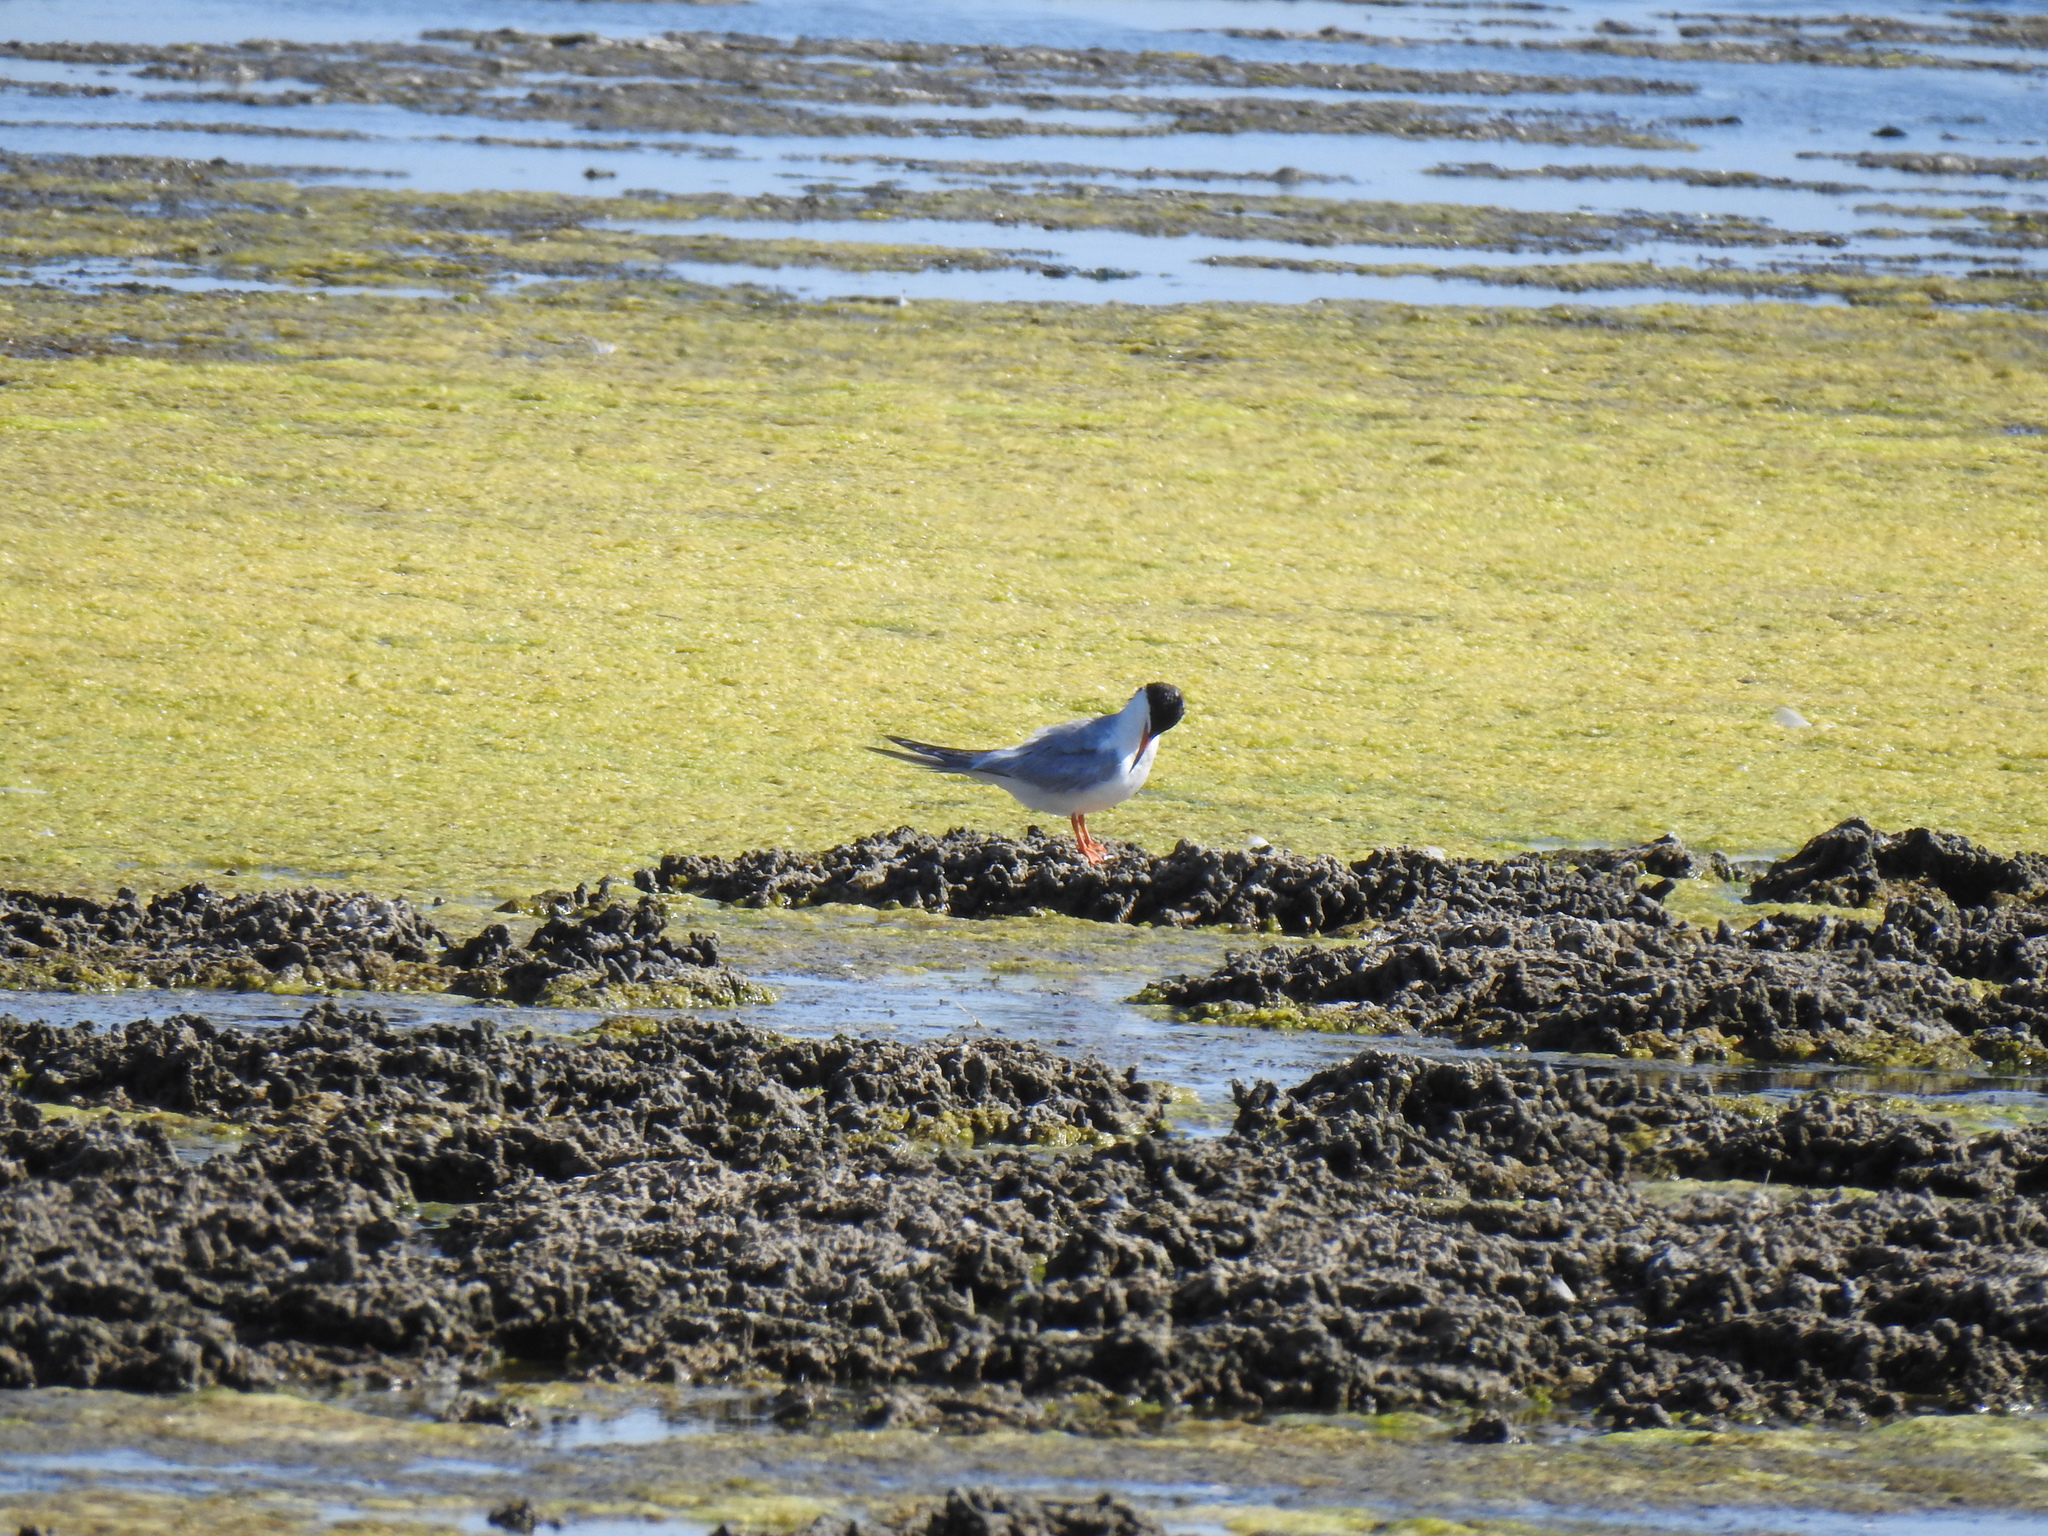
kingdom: Animalia
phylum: Chordata
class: Aves
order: Charadriiformes
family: Laridae
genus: Sterna
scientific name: Sterna forsteri
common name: Forster's tern
